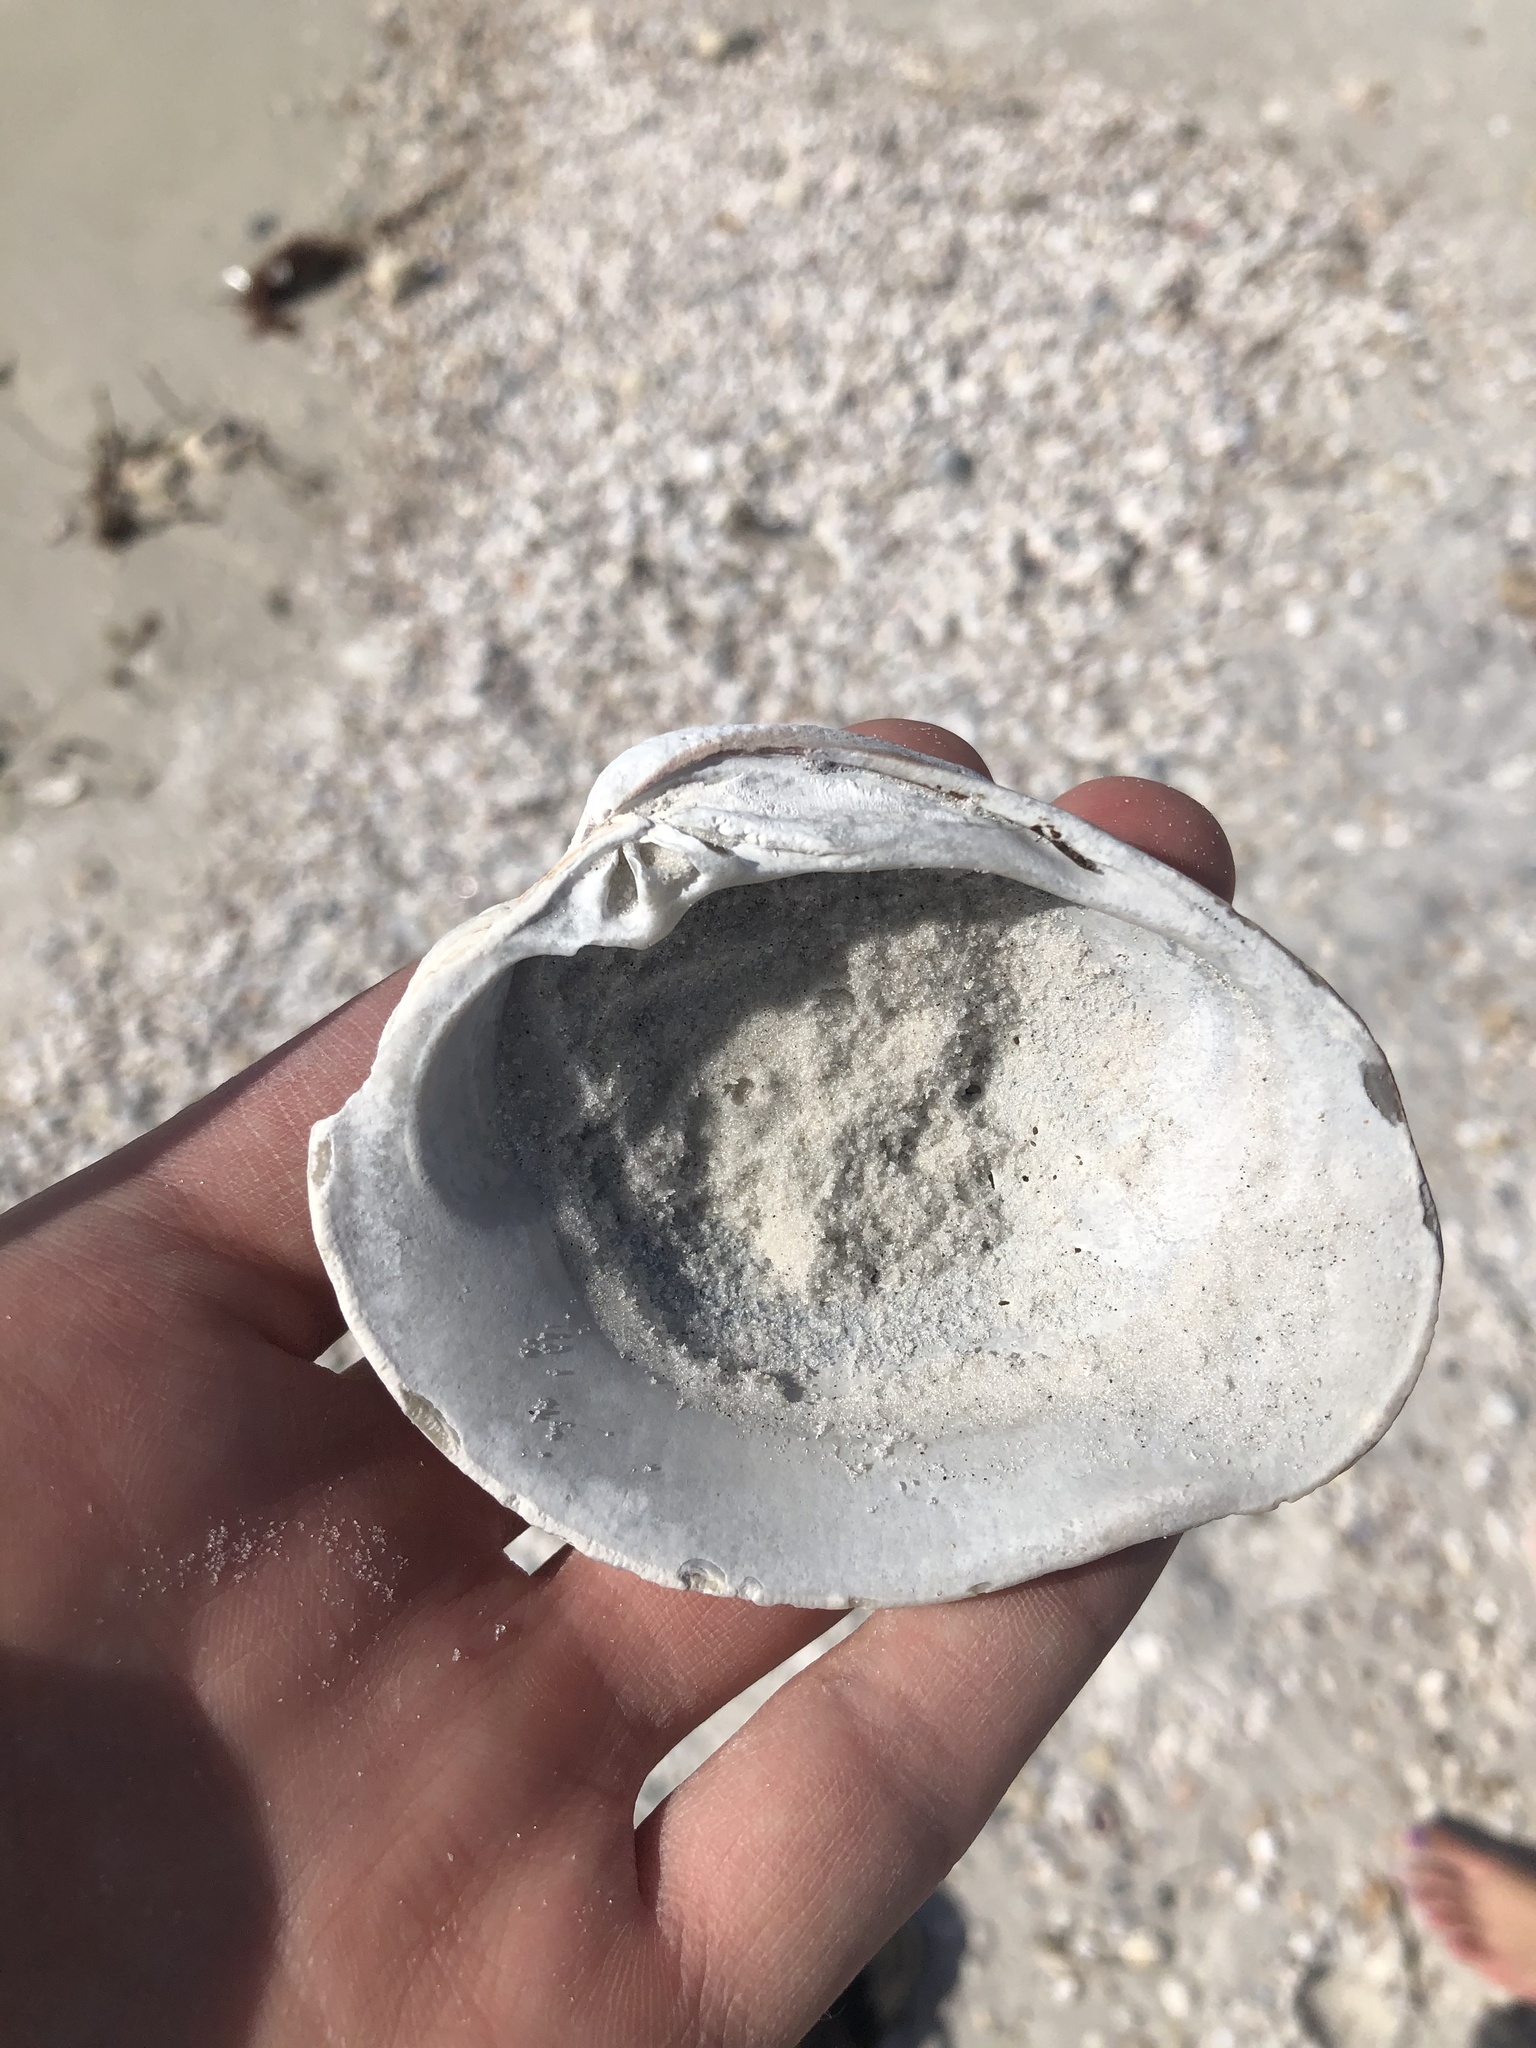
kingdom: Animalia
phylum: Mollusca
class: Bivalvia
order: Venerida
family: Veneridae
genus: Mercenaria
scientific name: Mercenaria campechiensis
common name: Südliche quahog-muschel
